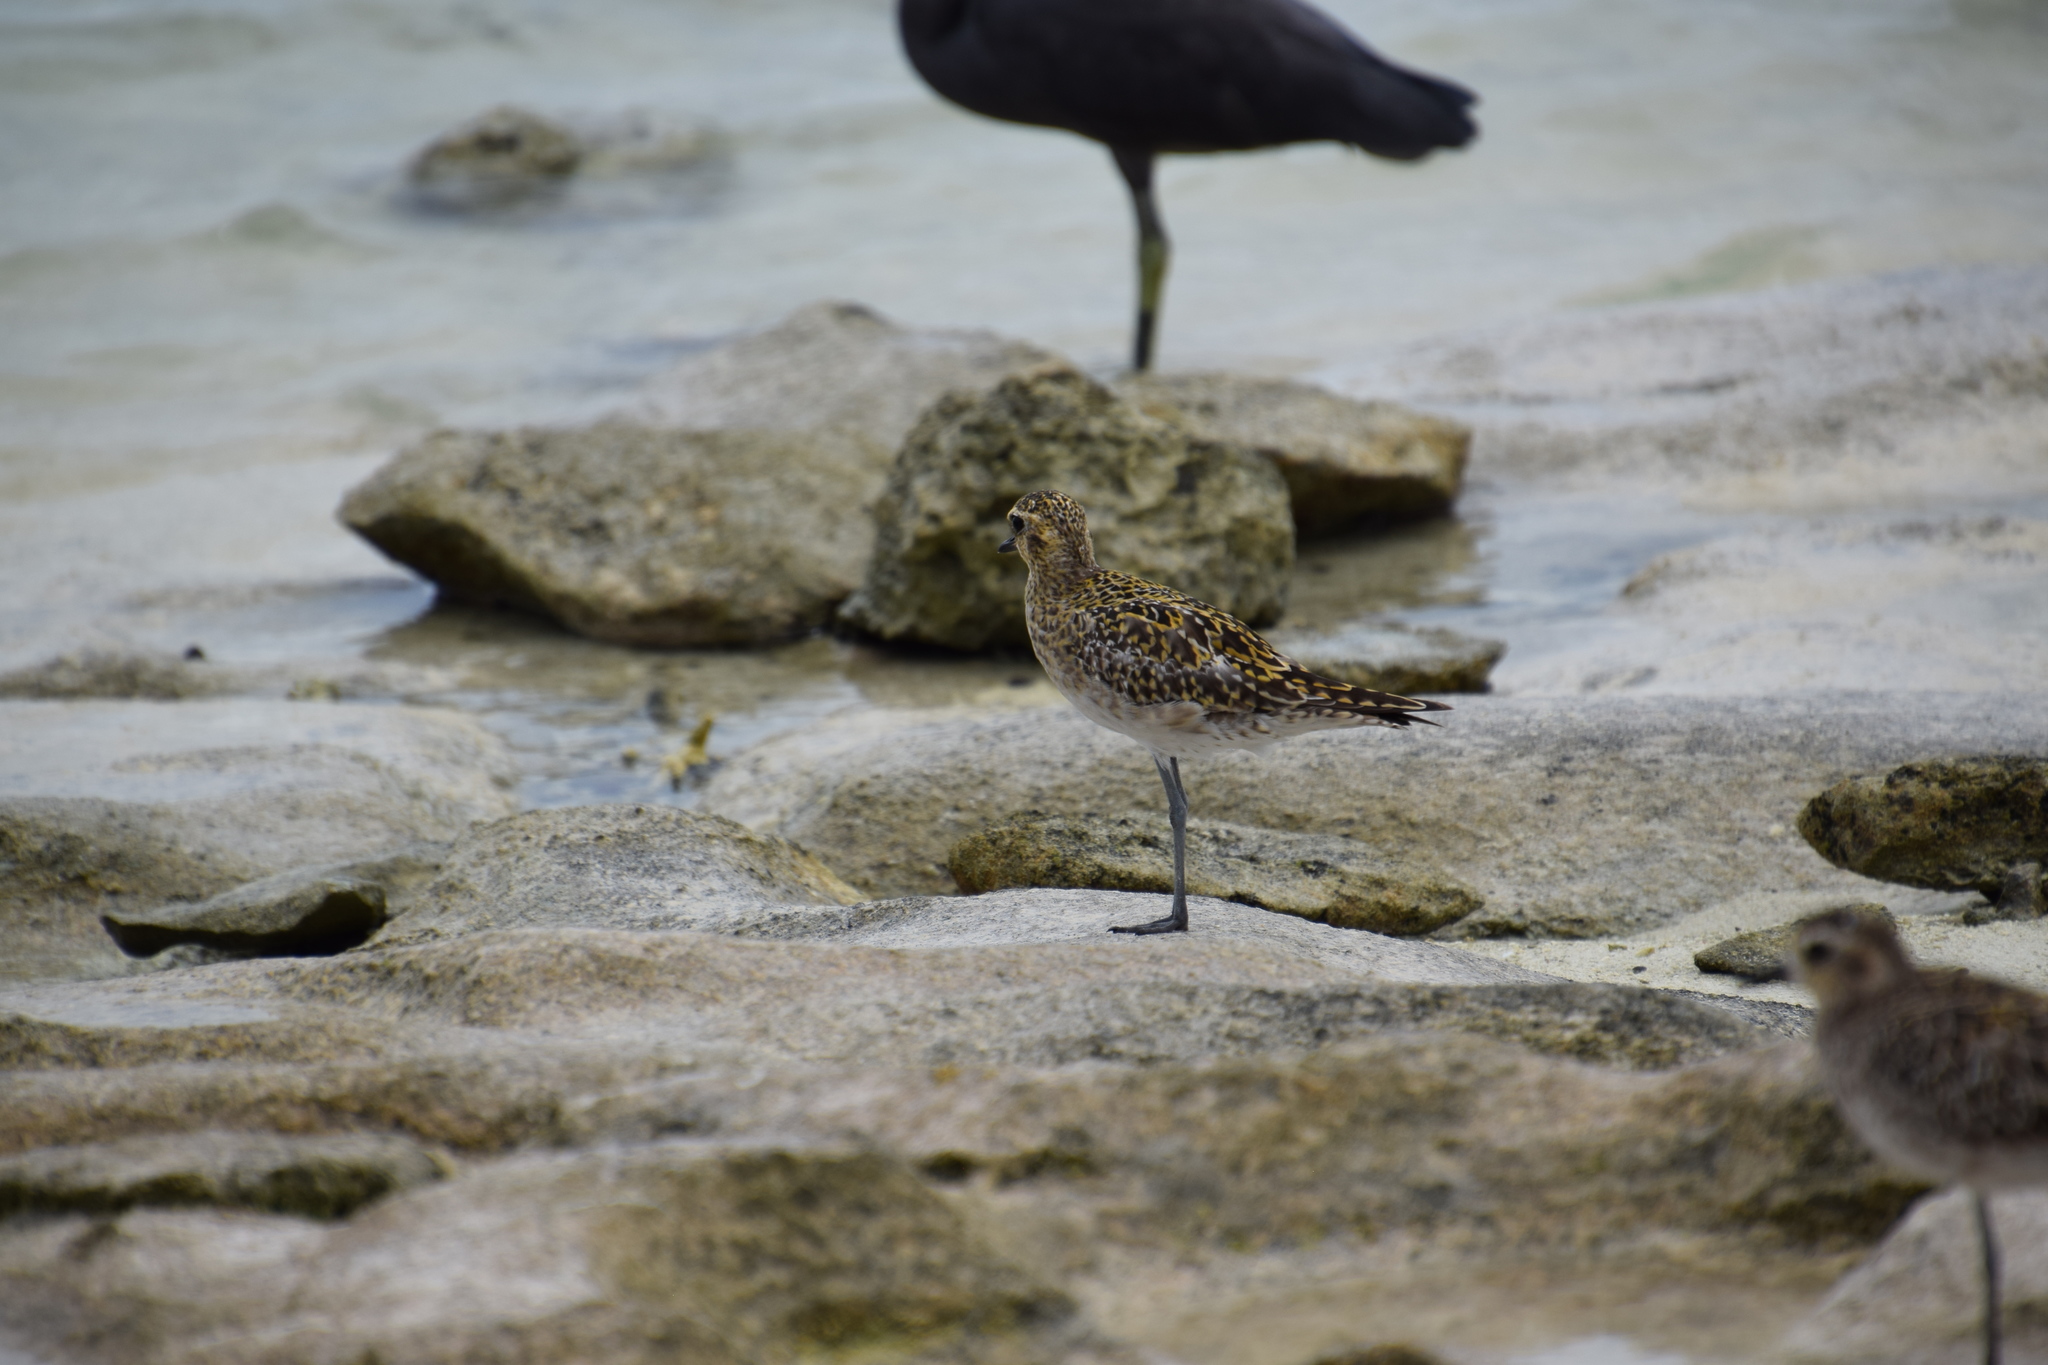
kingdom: Animalia
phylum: Chordata
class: Aves
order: Charadriiformes
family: Charadriidae
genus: Pluvialis
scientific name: Pluvialis fulva
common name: Pacific golden plover
